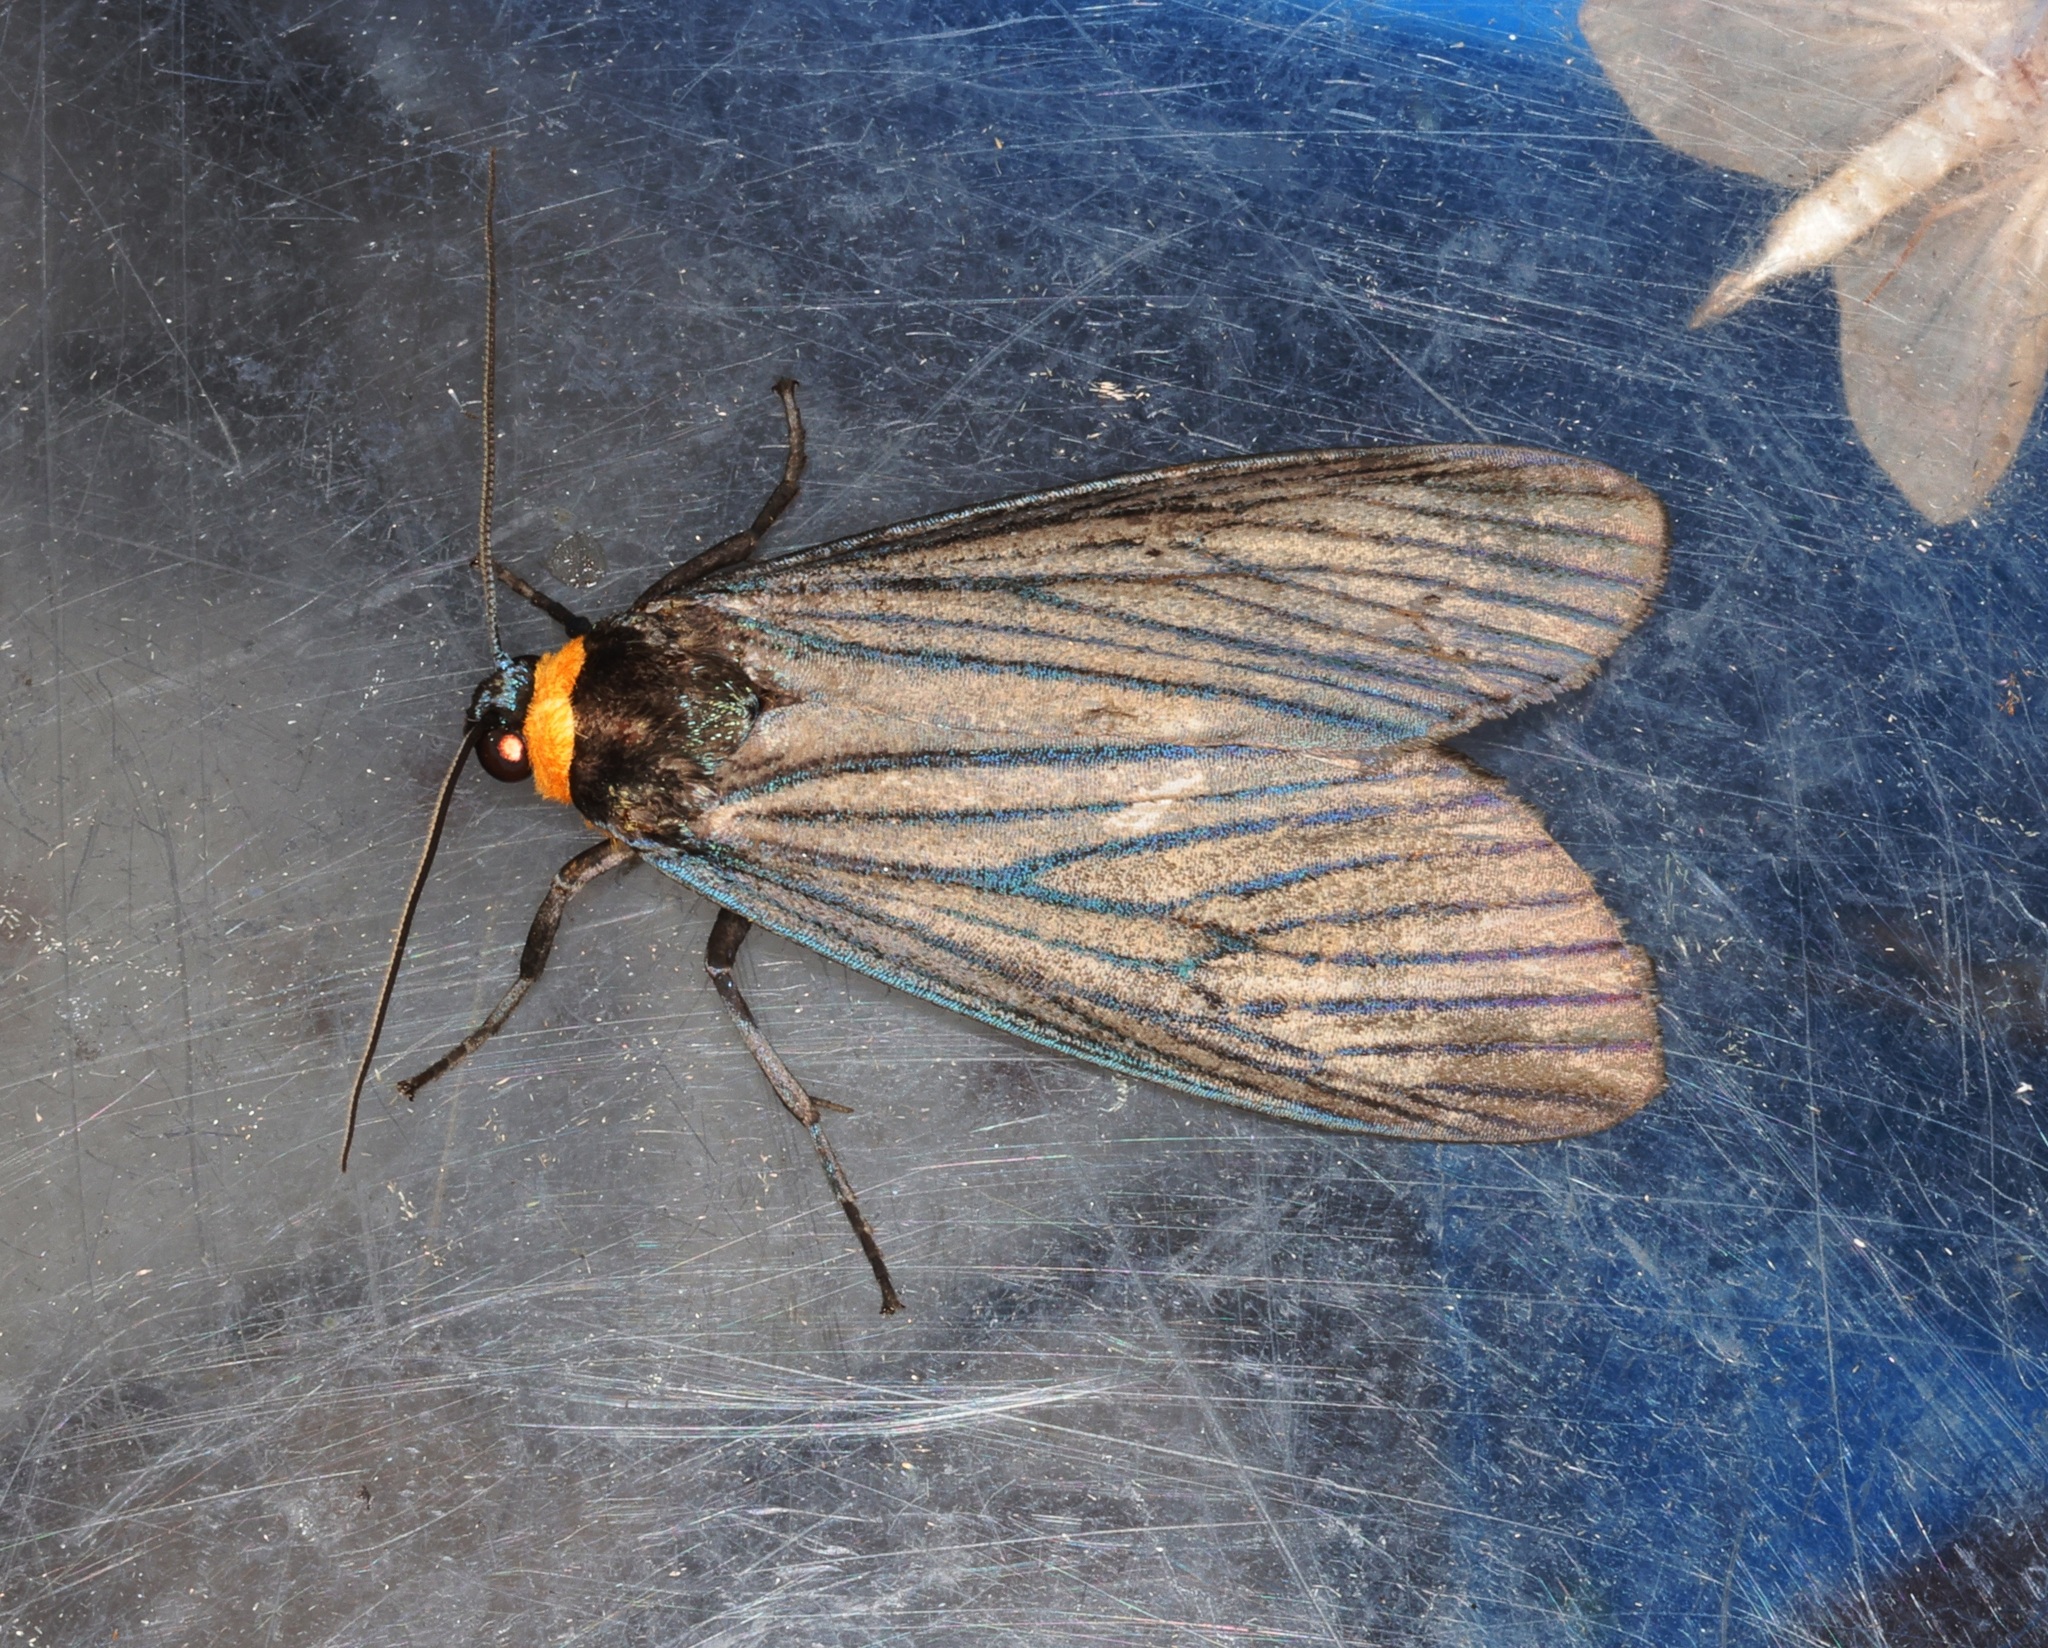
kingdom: Animalia
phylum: Arthropoda
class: Insecta
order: Lepidoptera
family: Erebidae
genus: Macrobrochis
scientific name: Macrobrochis fukiensis
